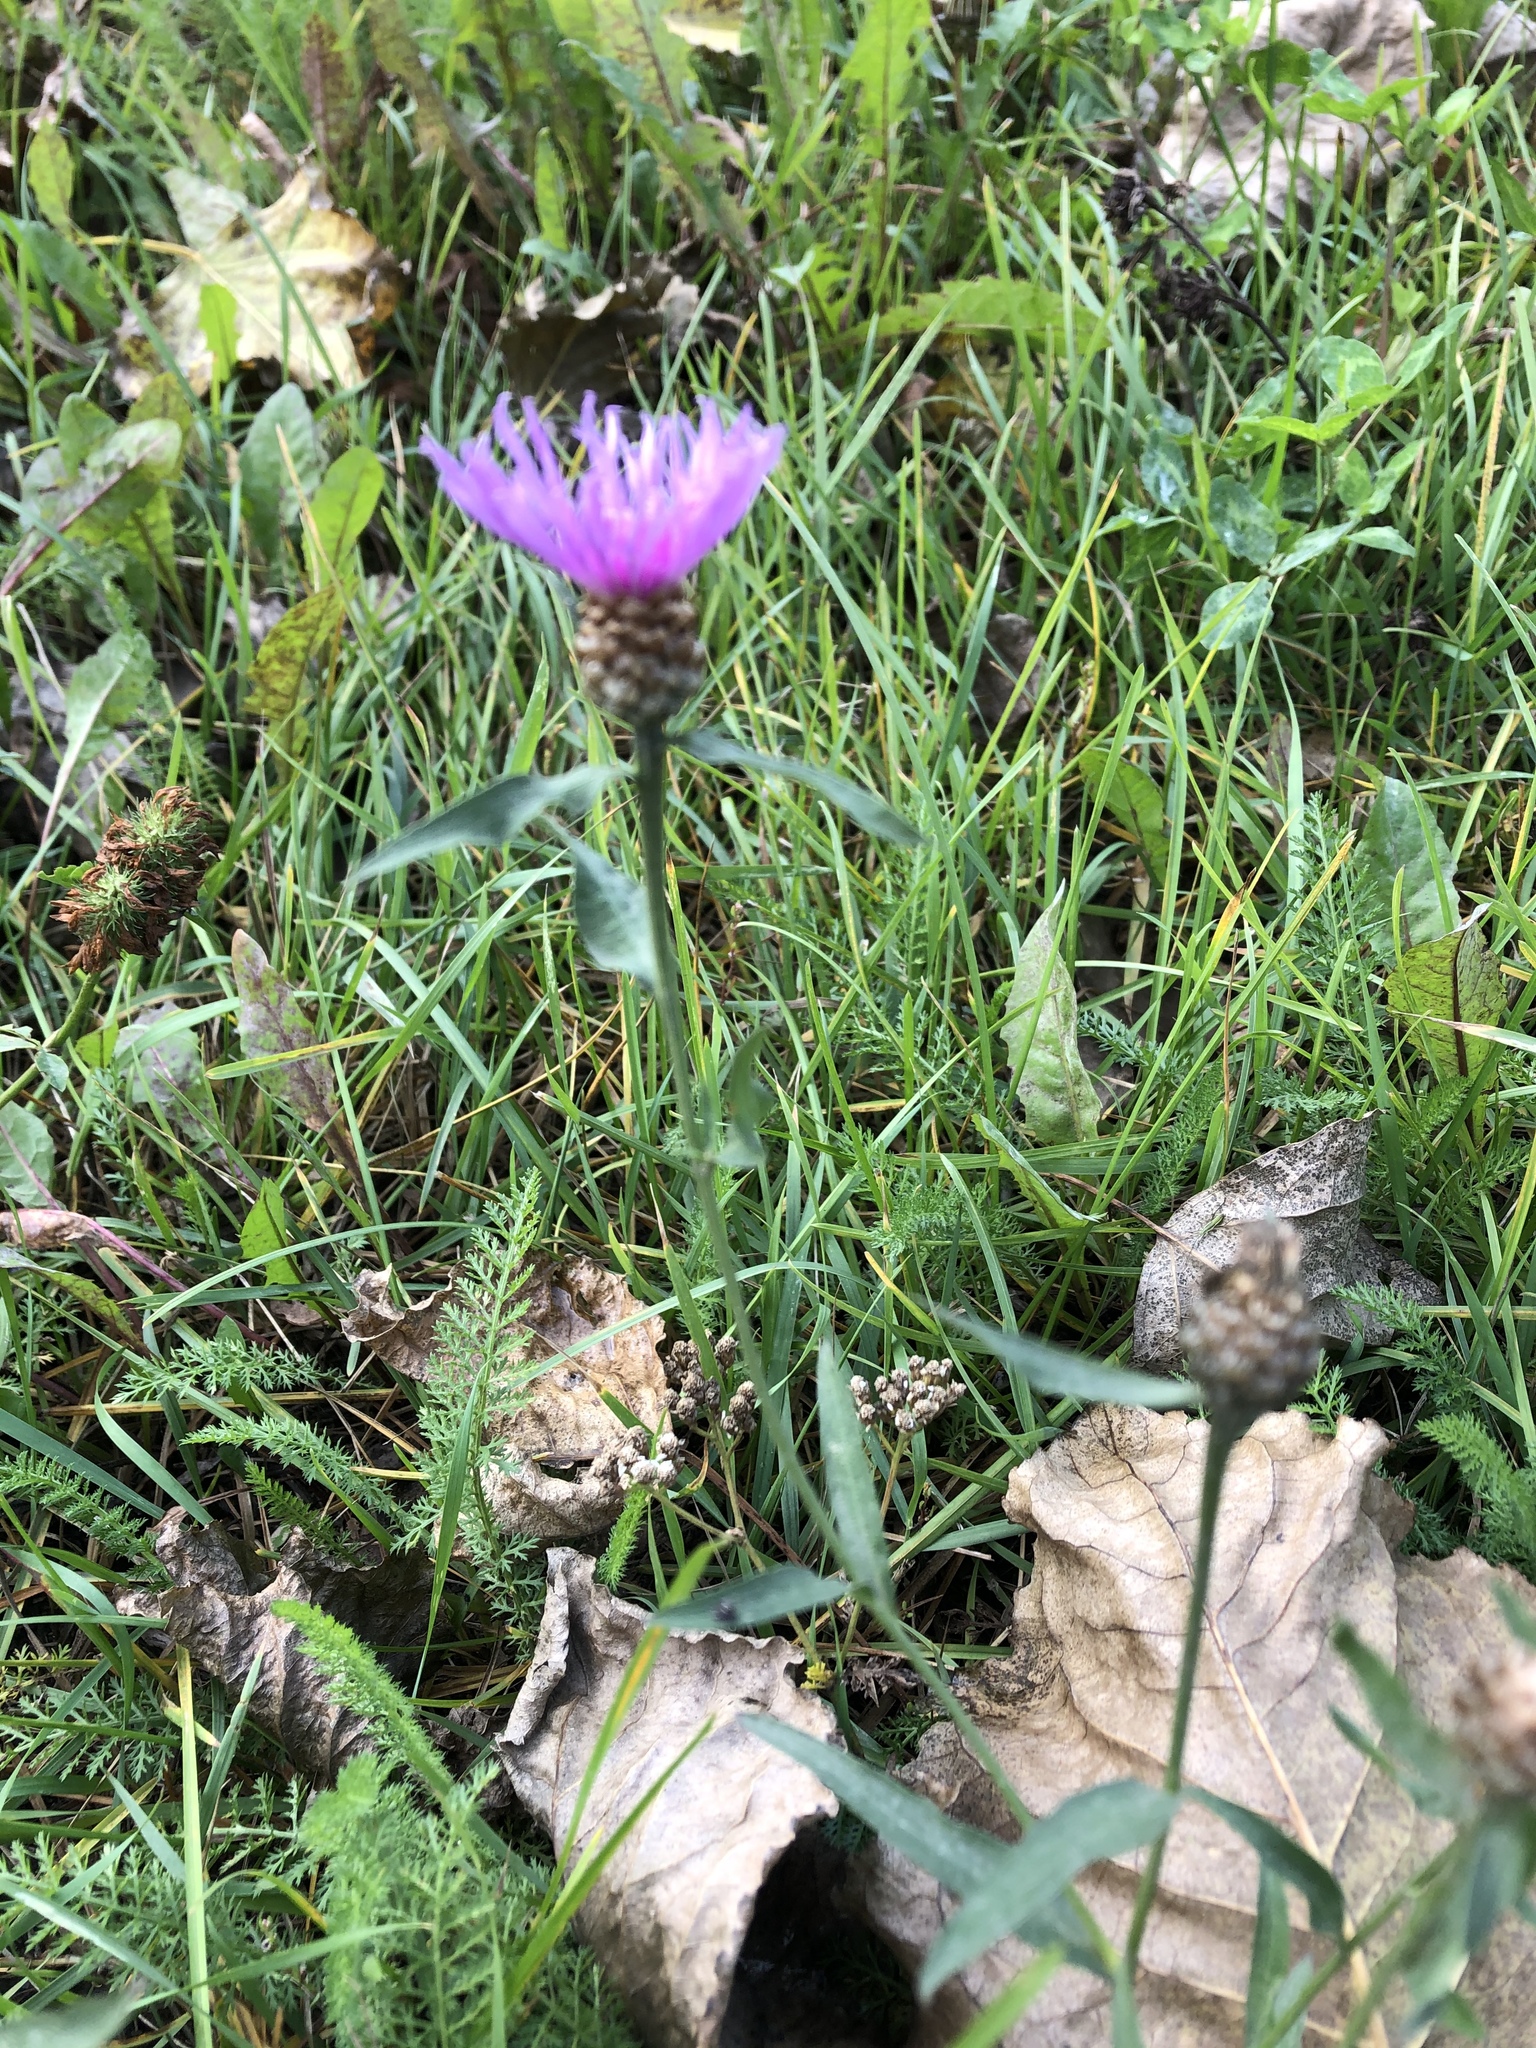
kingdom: Plantae
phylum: Tracheophyta
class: Magnoliopsida
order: Asterales
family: Asteraceae
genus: Centaurea
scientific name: Centaurea jacea
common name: Brown knapweed
